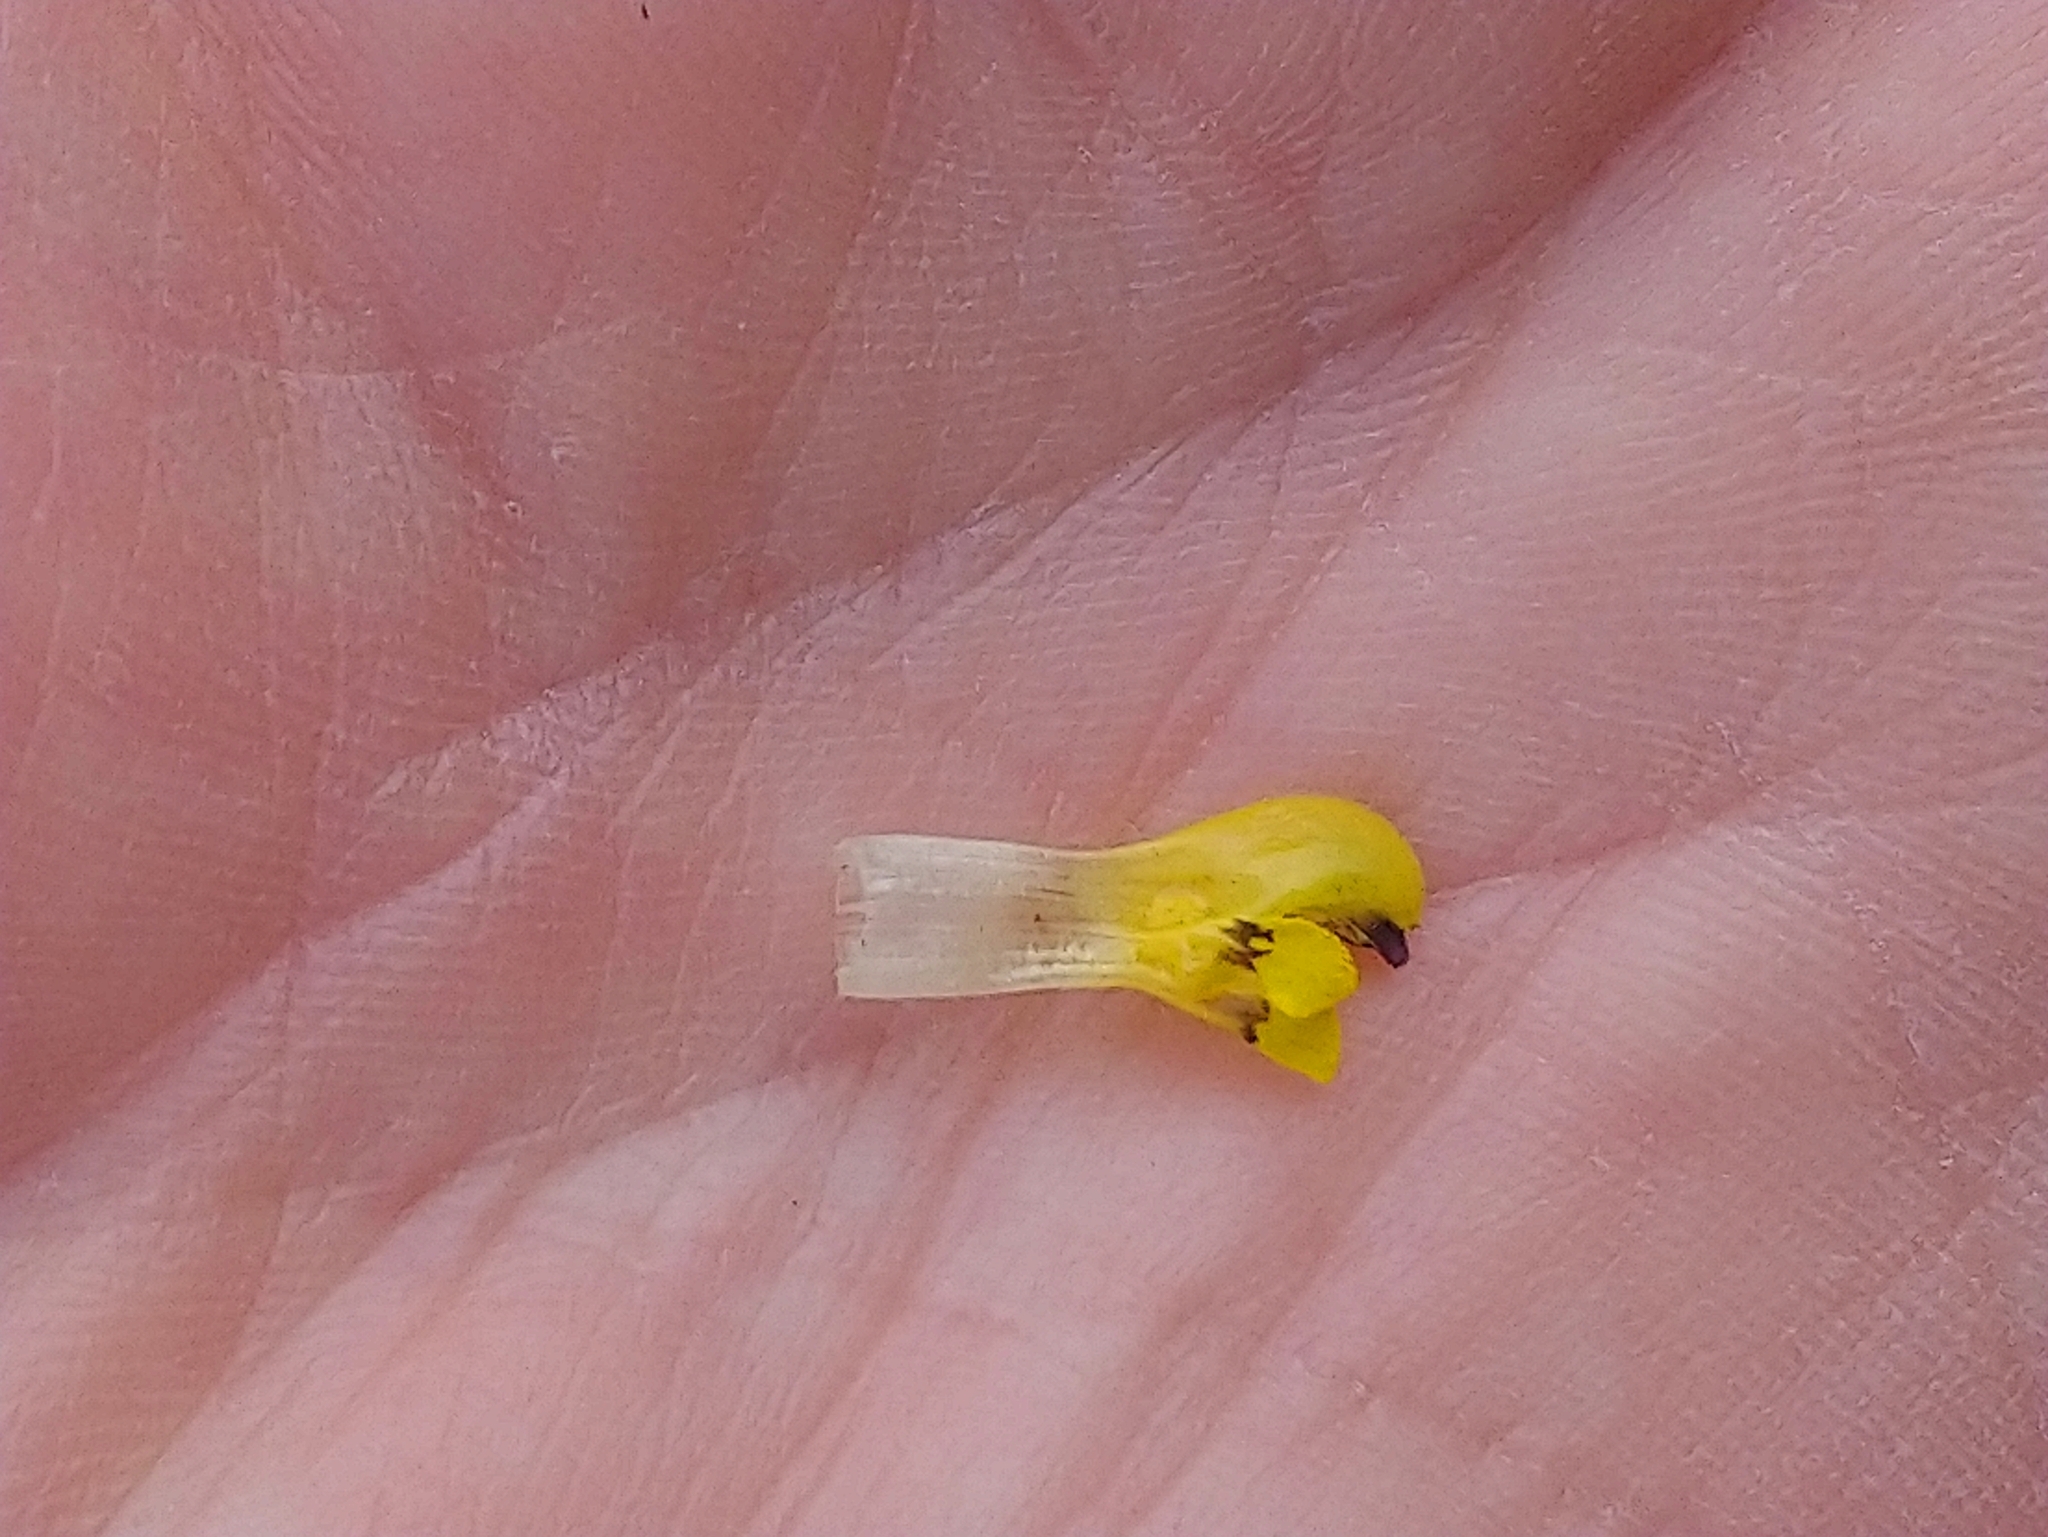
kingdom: Plantae
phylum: Tracheophyta
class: Magnoliopsida
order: Lamiales
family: Orobanchaceae
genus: Rhinanthus
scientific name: Rhinanthus minor
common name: Yellow-rattle
